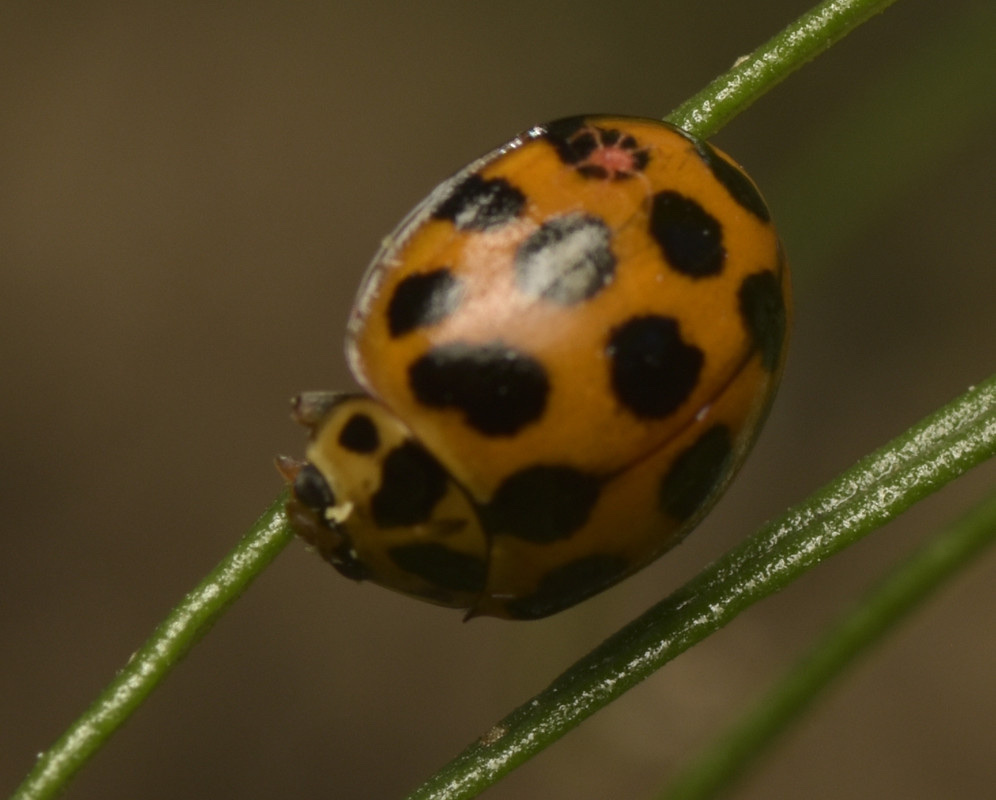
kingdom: Animalia
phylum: Arthropoda
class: Insecta
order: Coleoptera
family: Coccinellidae
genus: Harmonia
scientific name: Harmonia conformis
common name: Common spotted ladybird beetle
